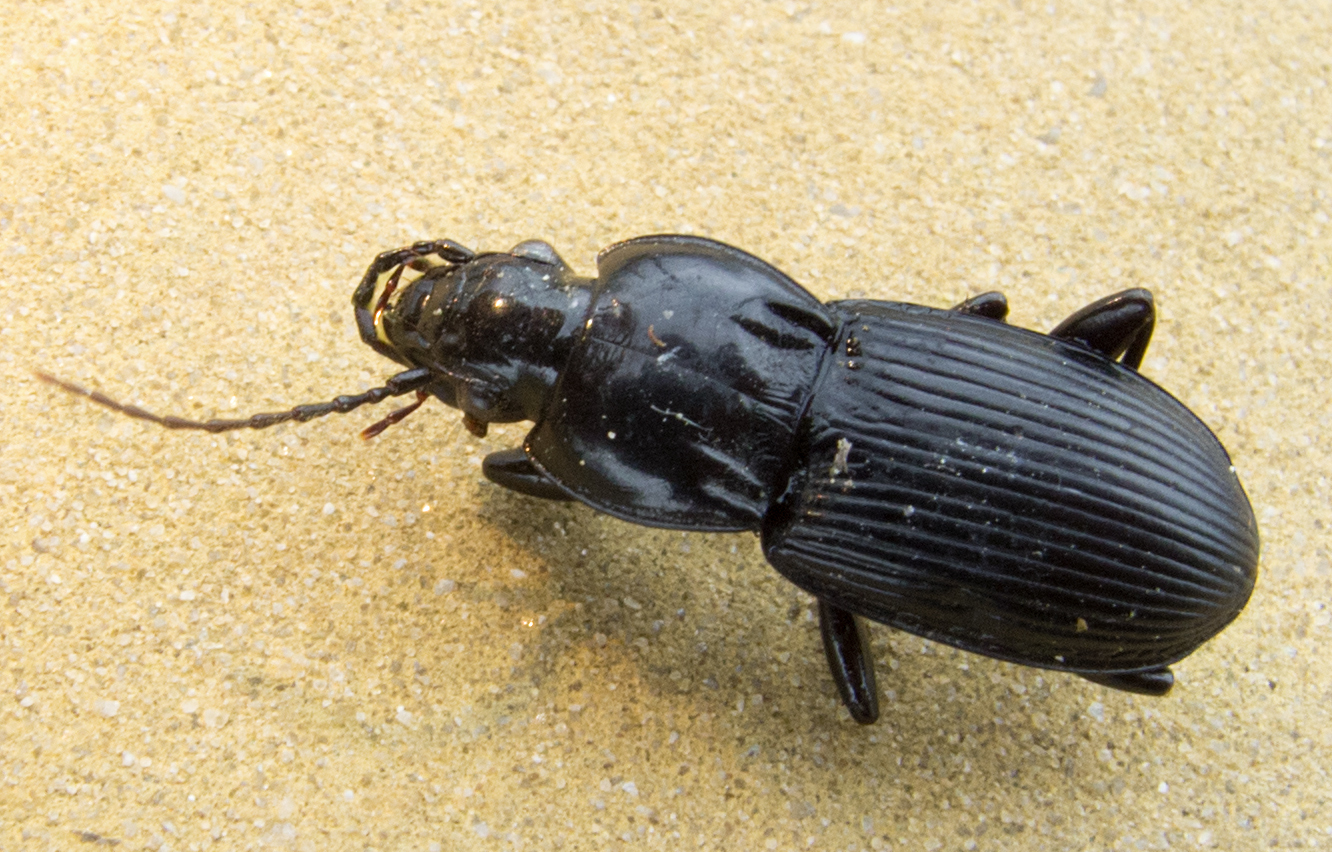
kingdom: Animalia
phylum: Arthropoda
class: Insecta
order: Coleoptera
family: Carabidae
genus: Pterostichus
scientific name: Pterostichus melas
